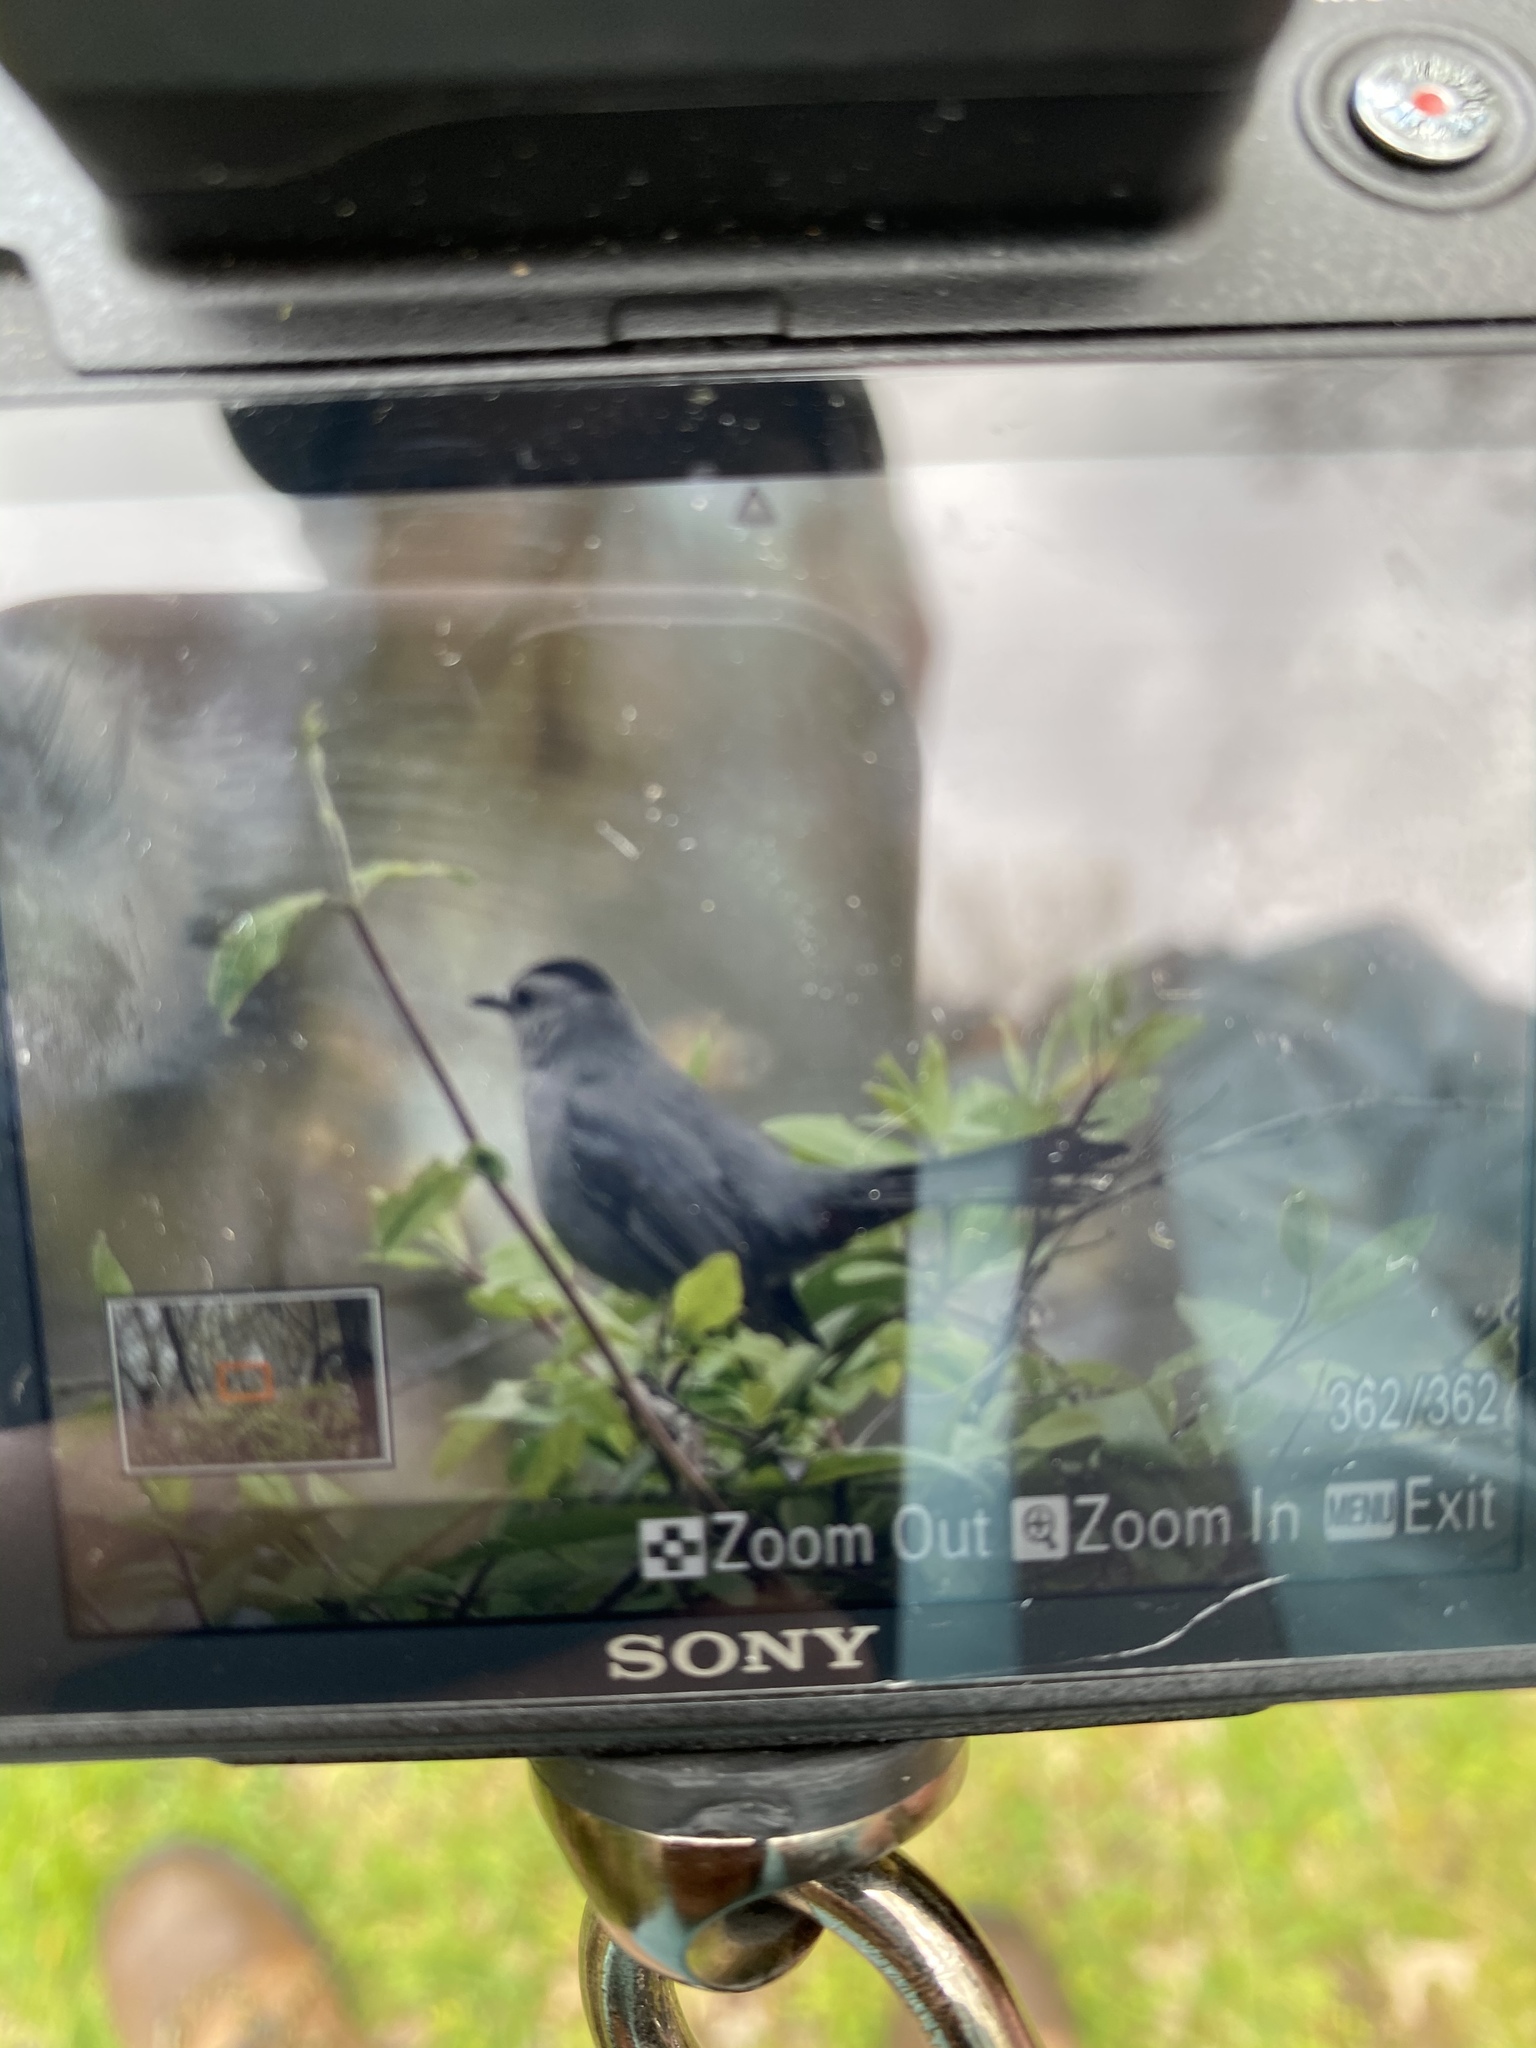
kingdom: Animalia
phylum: Chordata
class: Aves
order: Passeriformes
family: Mimidae
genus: Dumetella
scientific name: Dumetella carolinensis
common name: Gray catbird
